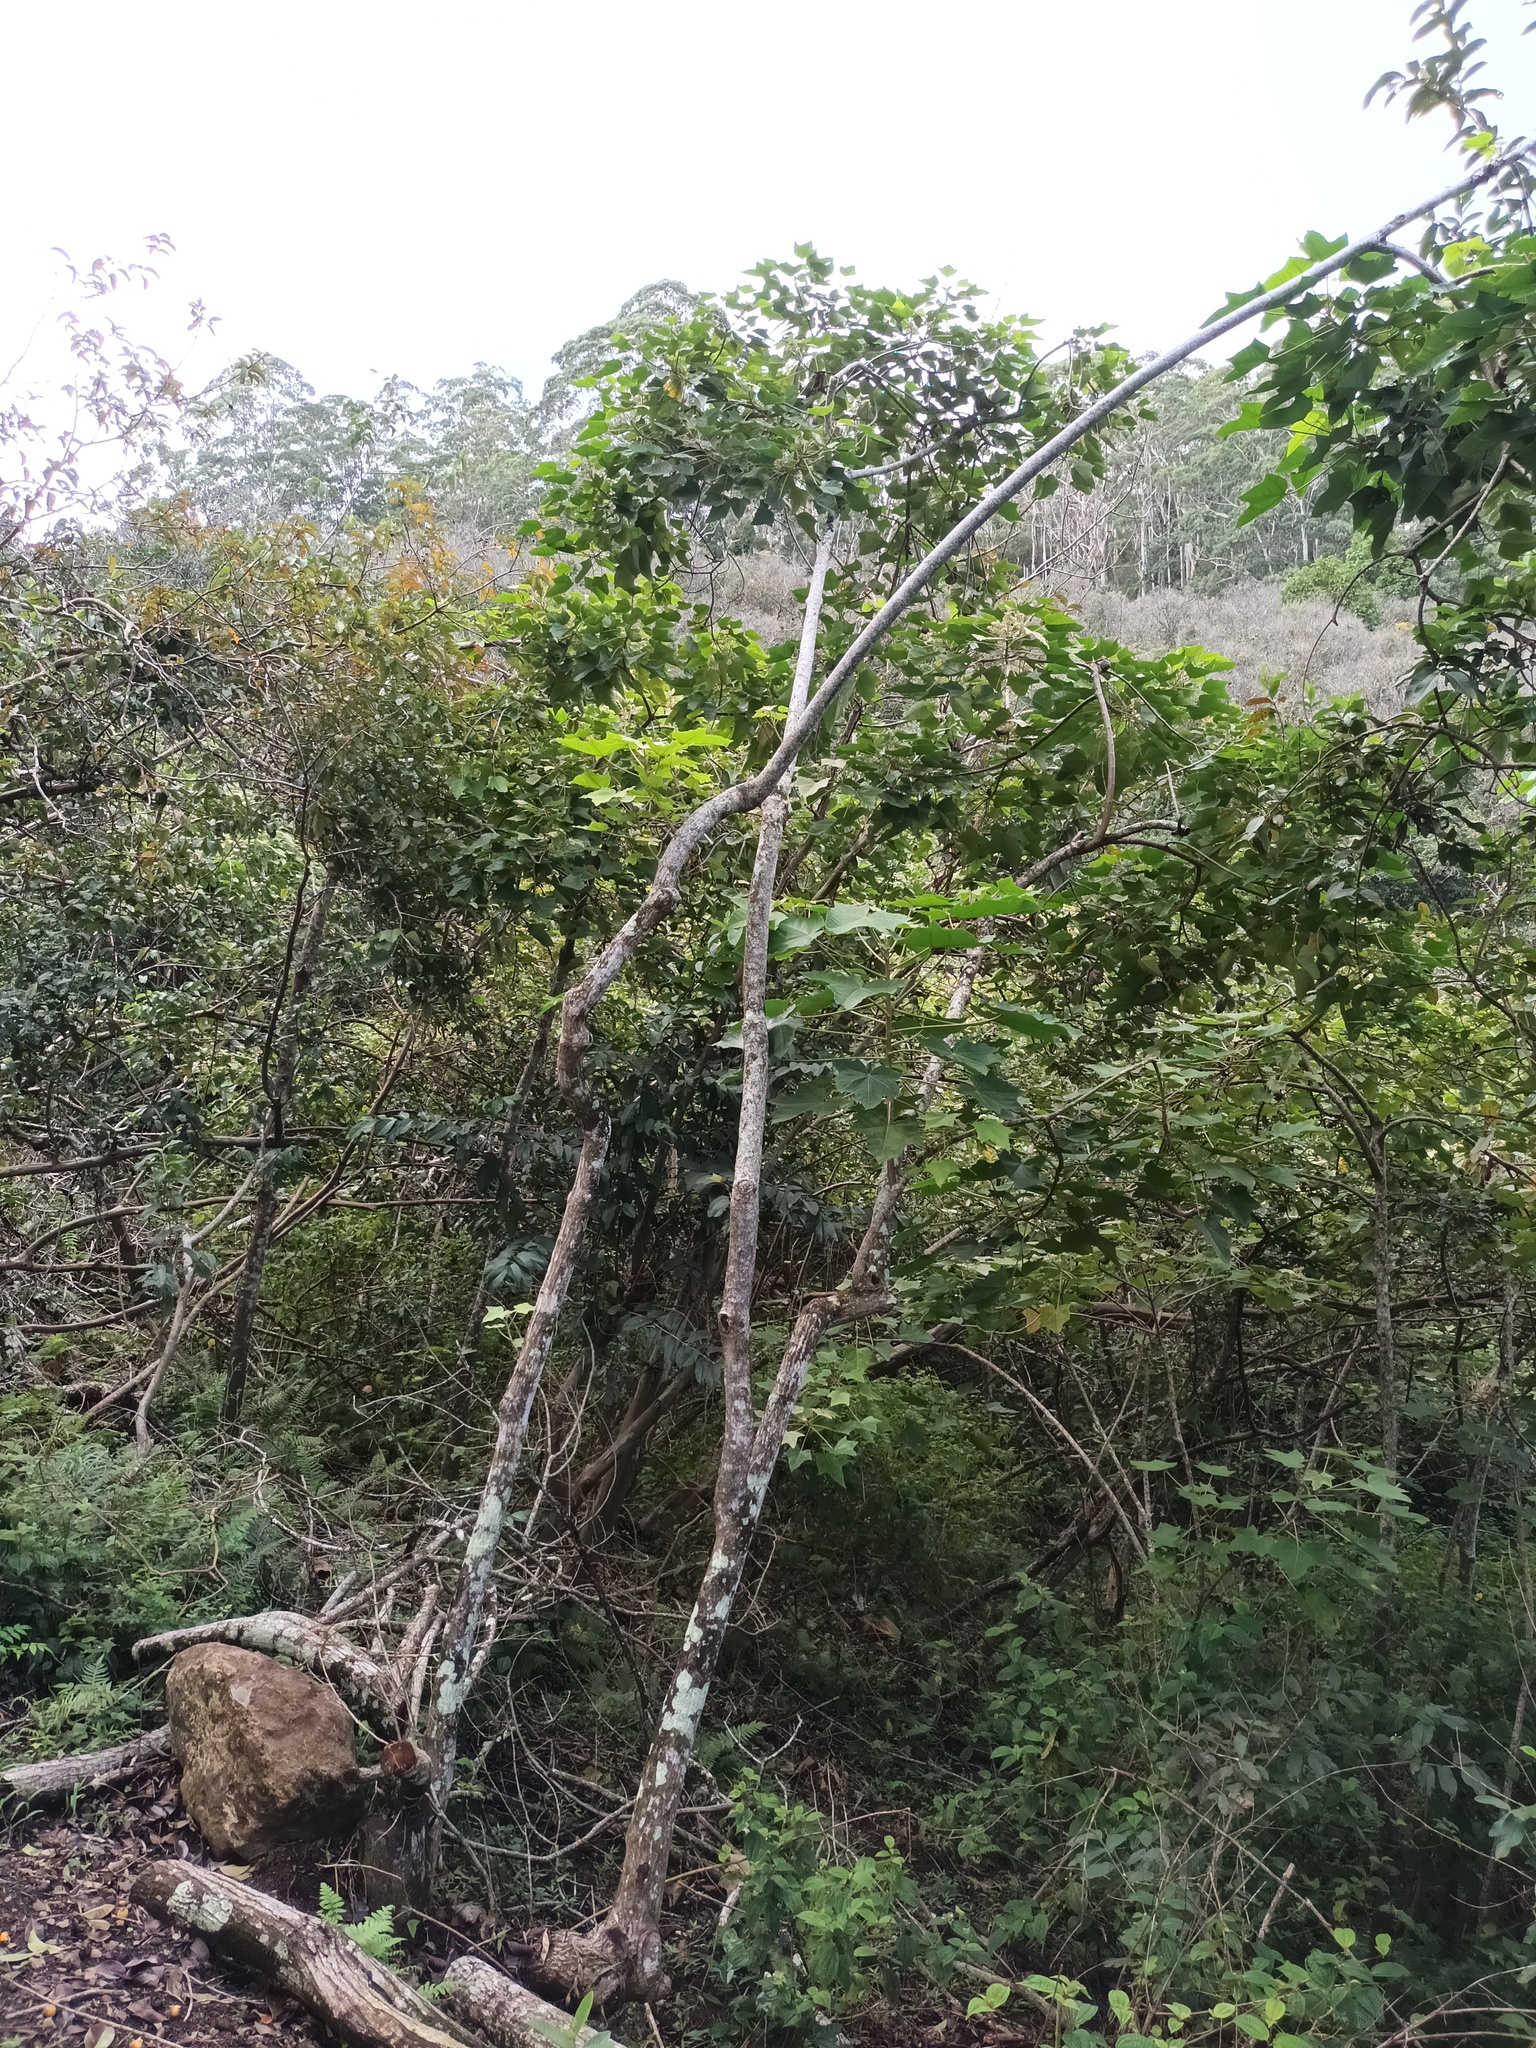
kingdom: Plantae
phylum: Tracheophyta
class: Magnoliopsida
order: Malpighiales
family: Euphorbiaceae
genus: Aleurites
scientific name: Aleurites moluccanus
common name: Candlenut tree
